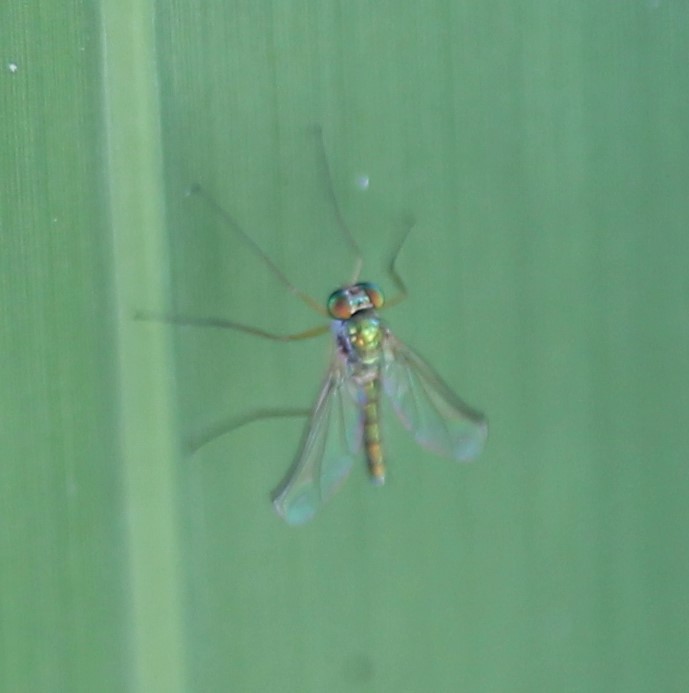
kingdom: Animalia
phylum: Arthropoda
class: Insecta
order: Diptera
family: Dolichopodidae
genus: Amblypsilopus
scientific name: Amblypsilopus psittacinus
